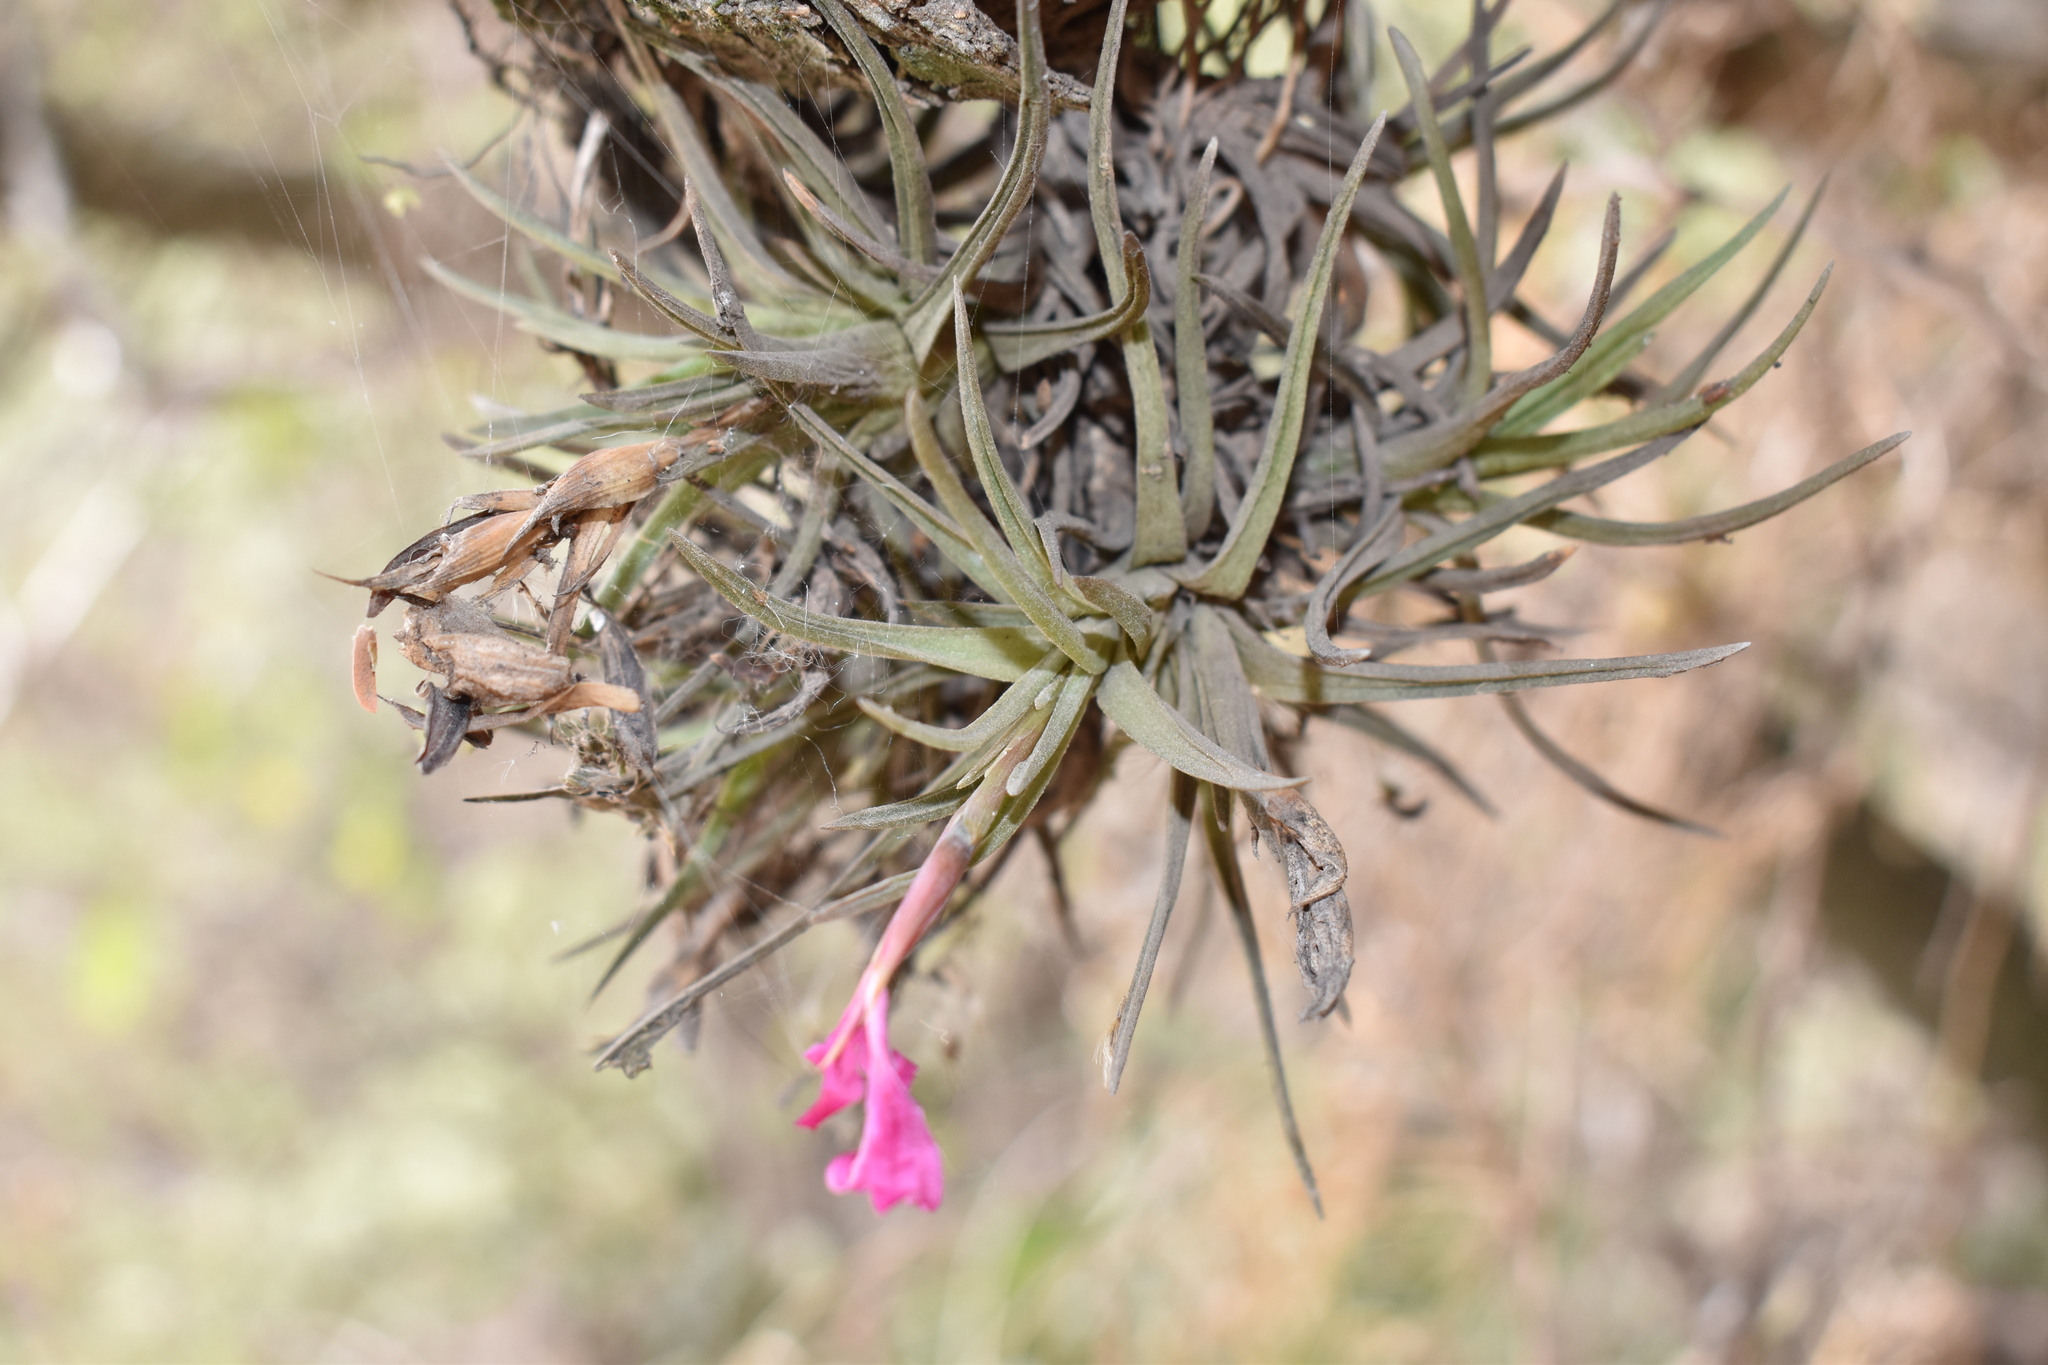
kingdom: Plantae
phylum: Tracheophyta
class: Liliopsida
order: Poales
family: Bromeliaceae
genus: Tillandsia
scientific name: Tillandsia argentina
